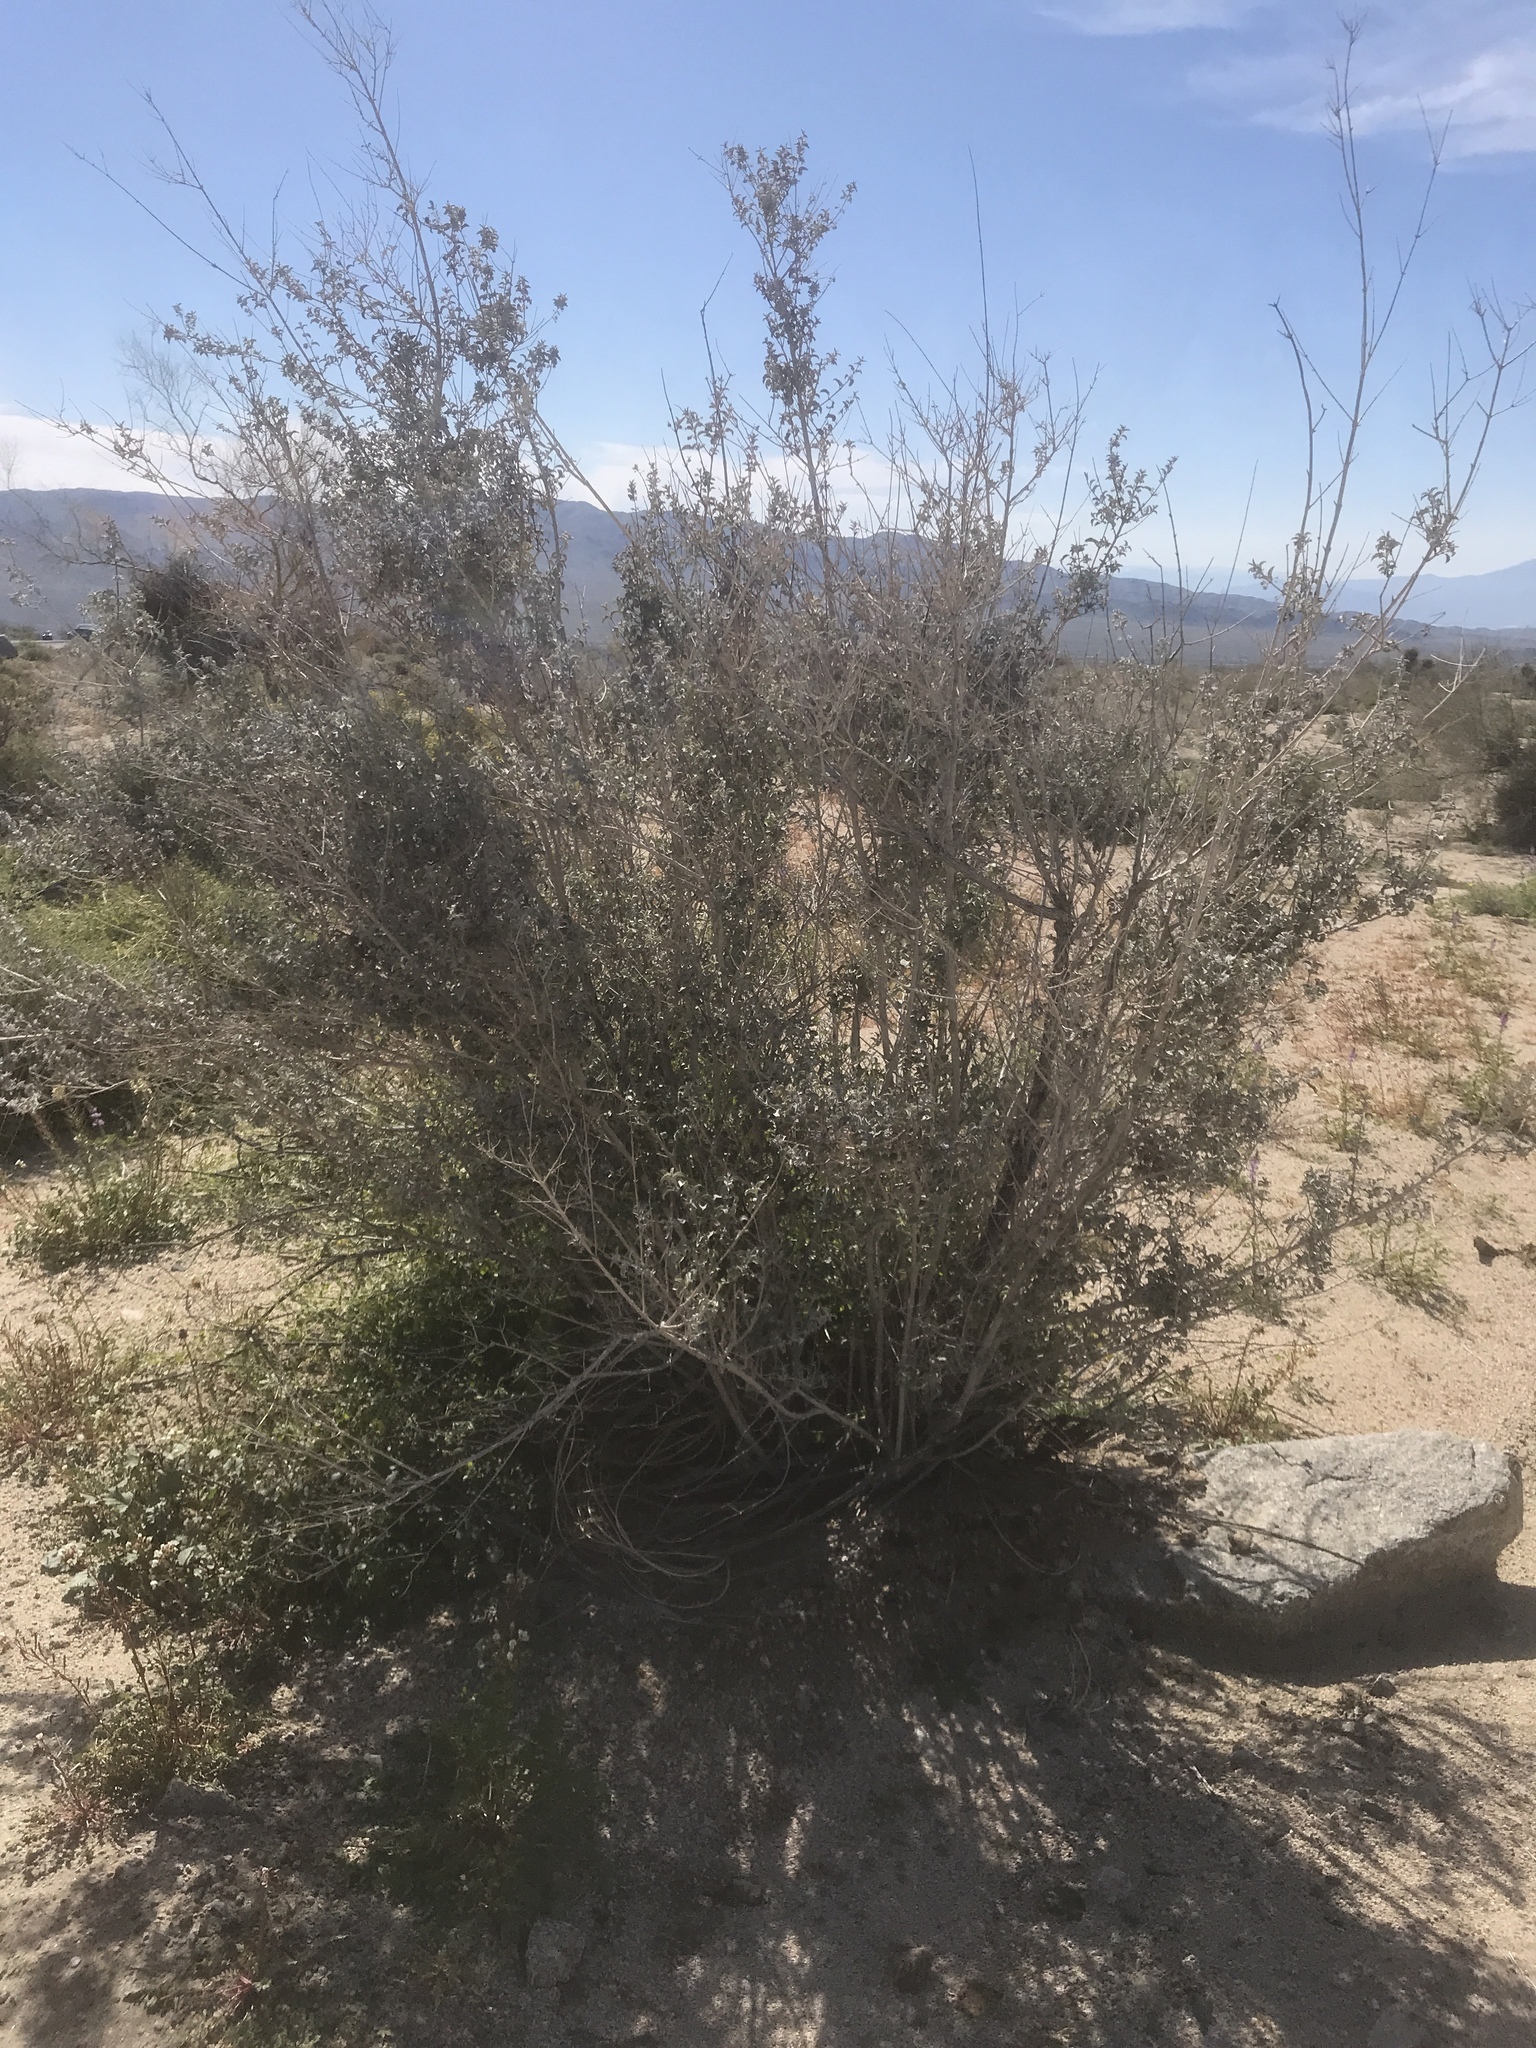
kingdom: Plantae
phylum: Tracheophyta
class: Magnoliopsida
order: Lamiales
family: Lamiaceae
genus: Condea
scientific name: Condea emoryi
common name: Chia
